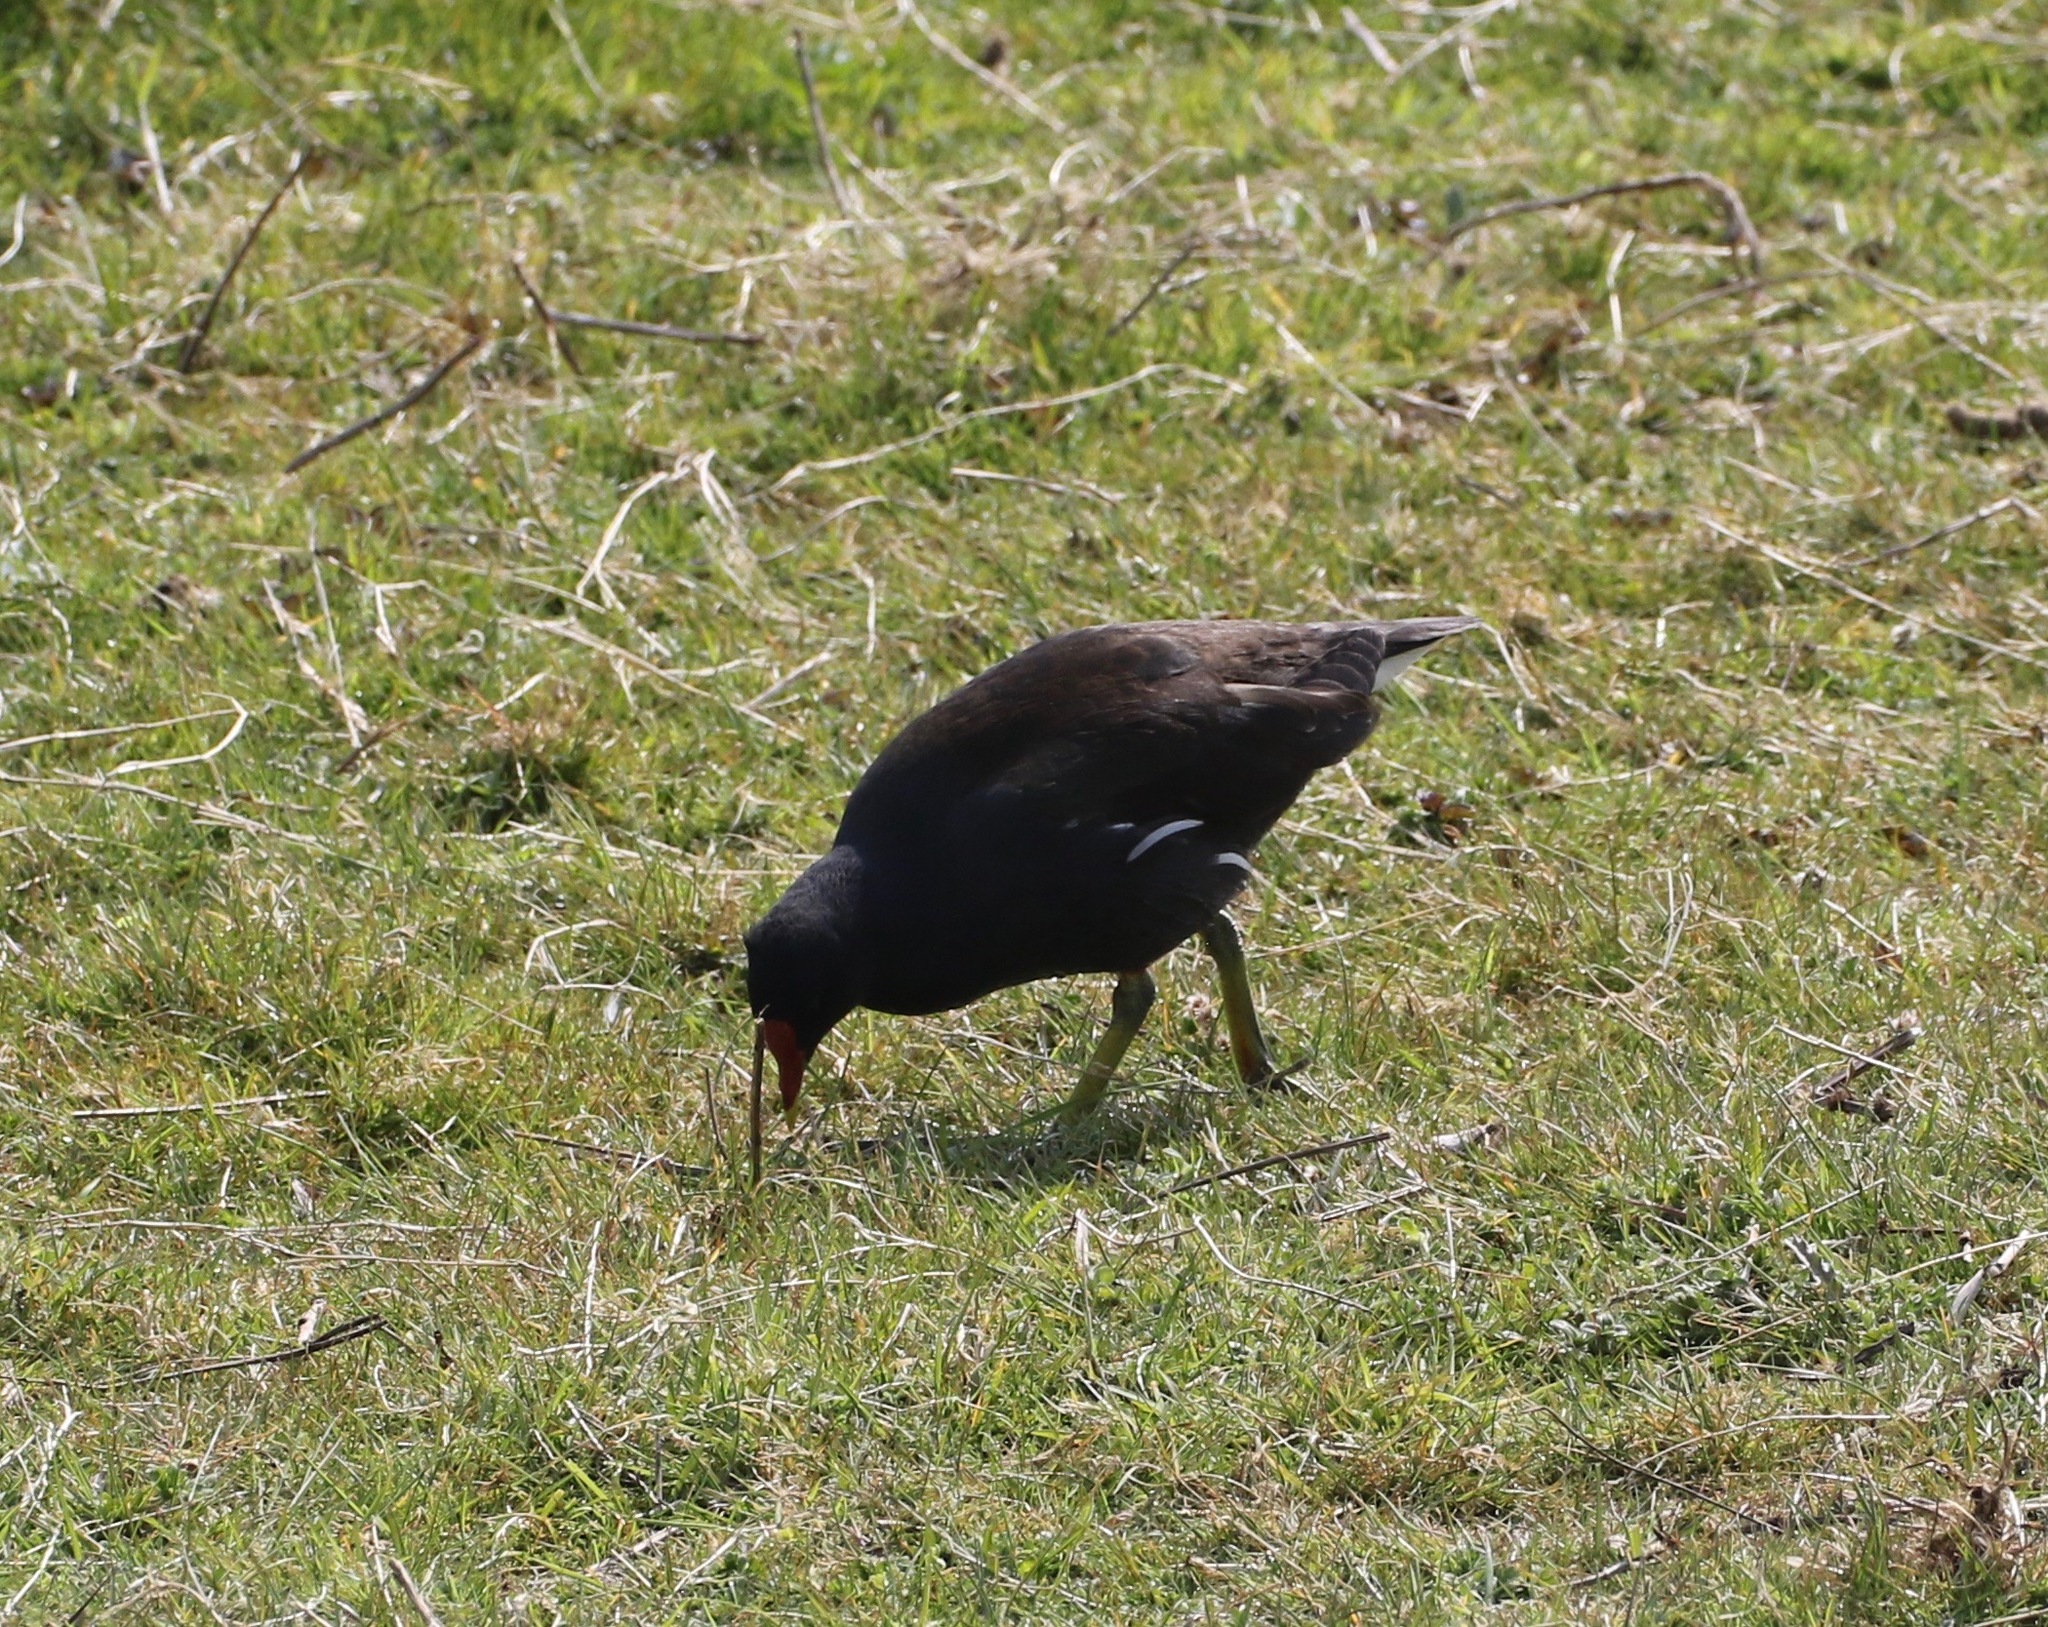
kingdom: Animalia
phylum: Chordata
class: Aves
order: Gruiformes
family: Rallidae
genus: Gallinula
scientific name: Gallinula chloropus
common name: Common moorhen
